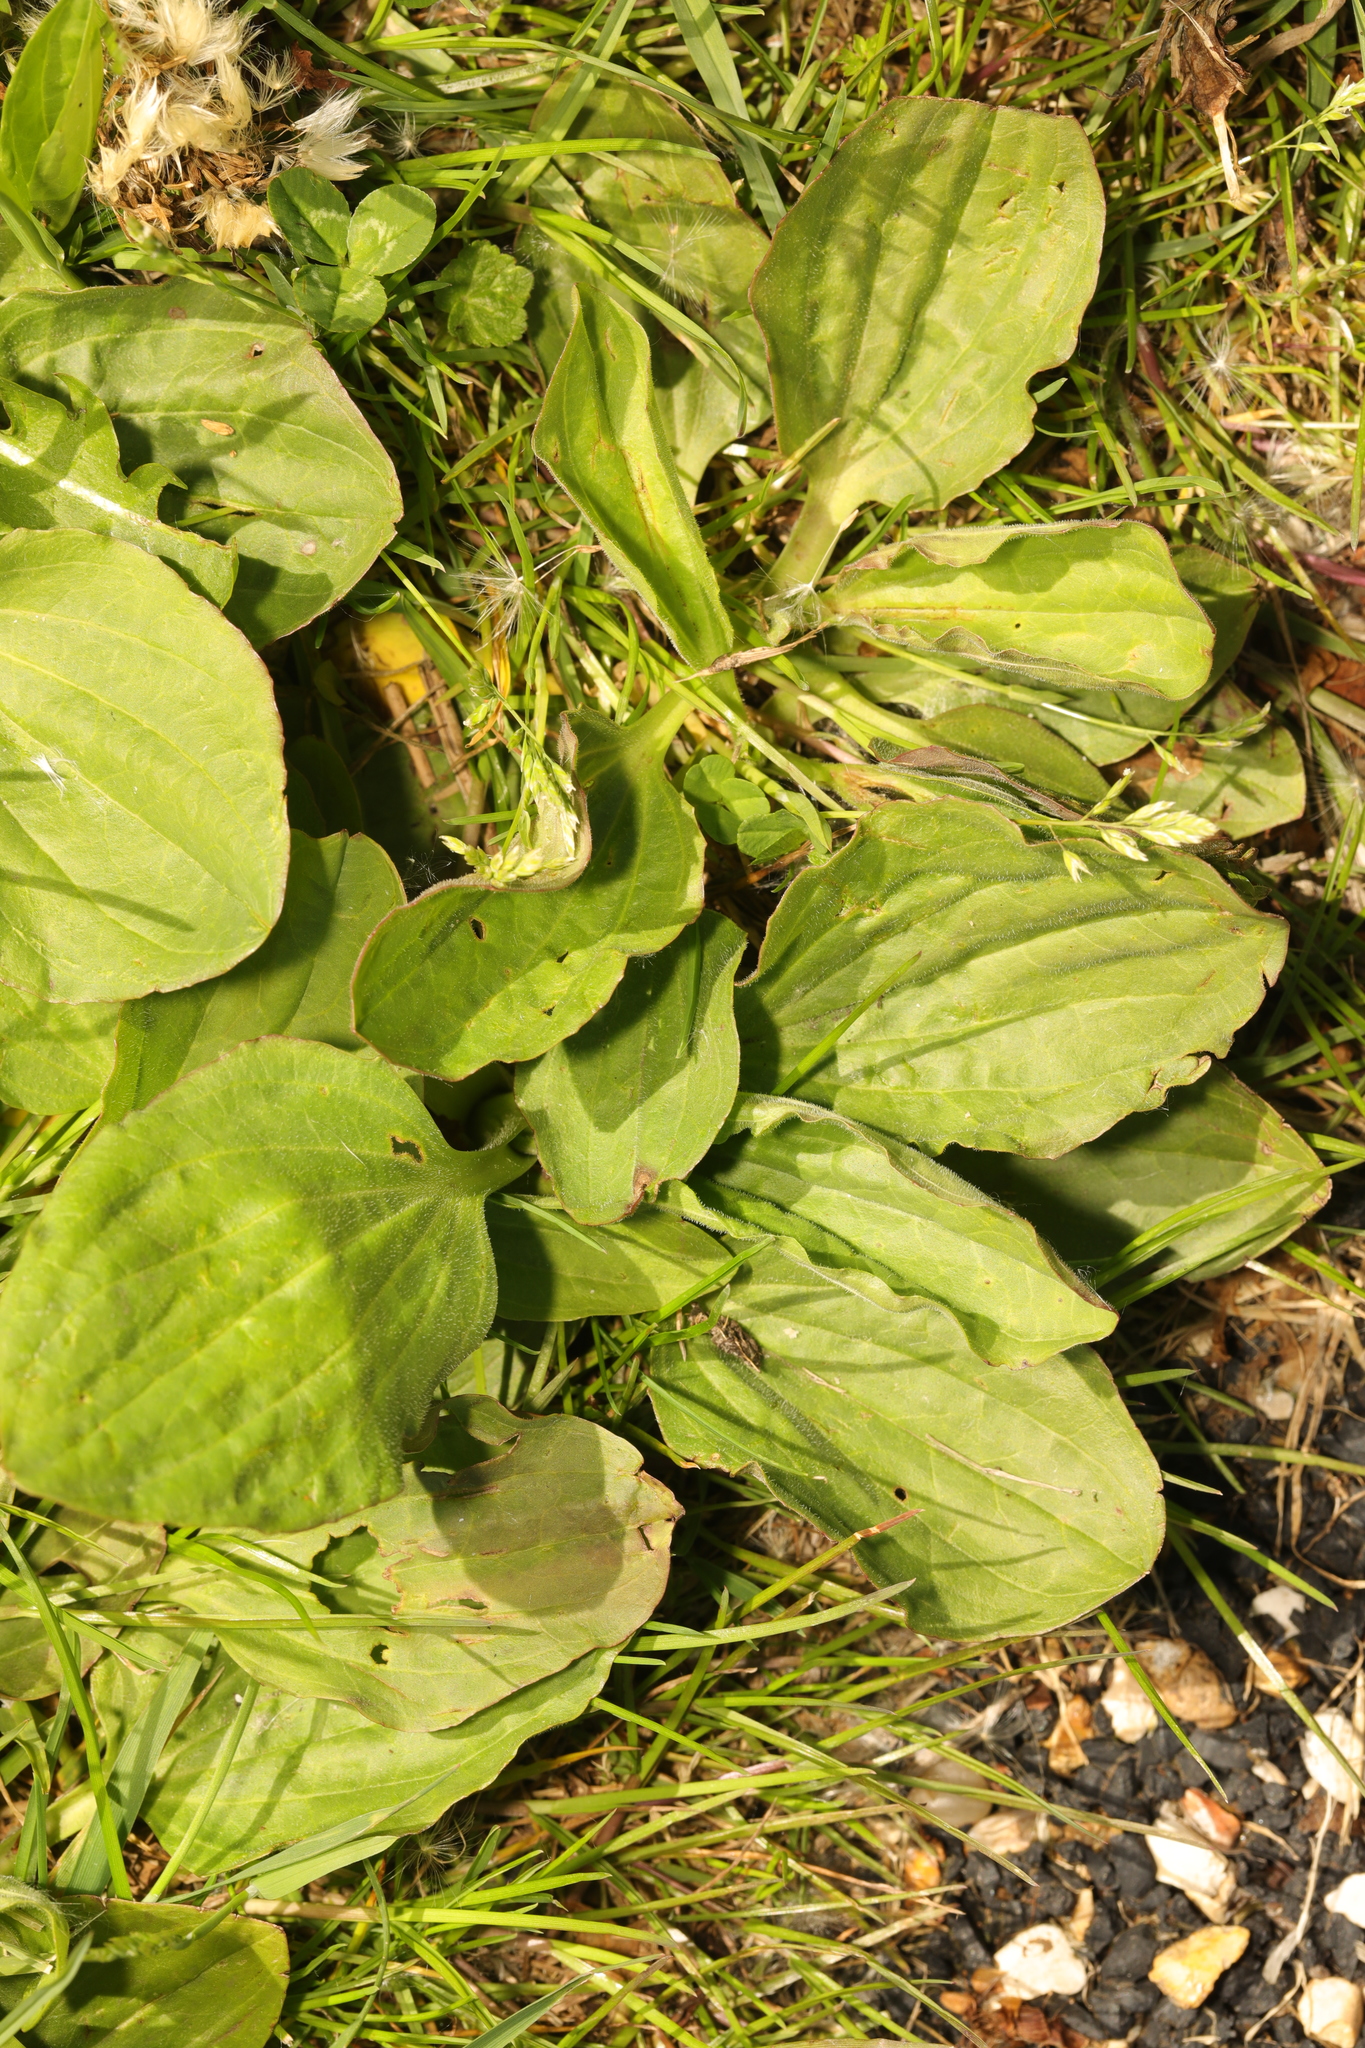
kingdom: Plantae
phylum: Tracheophyta
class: Magnoliopsida
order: Lamiales
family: Plantaginaceae
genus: Plantago
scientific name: Plantago major
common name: Common plantain
